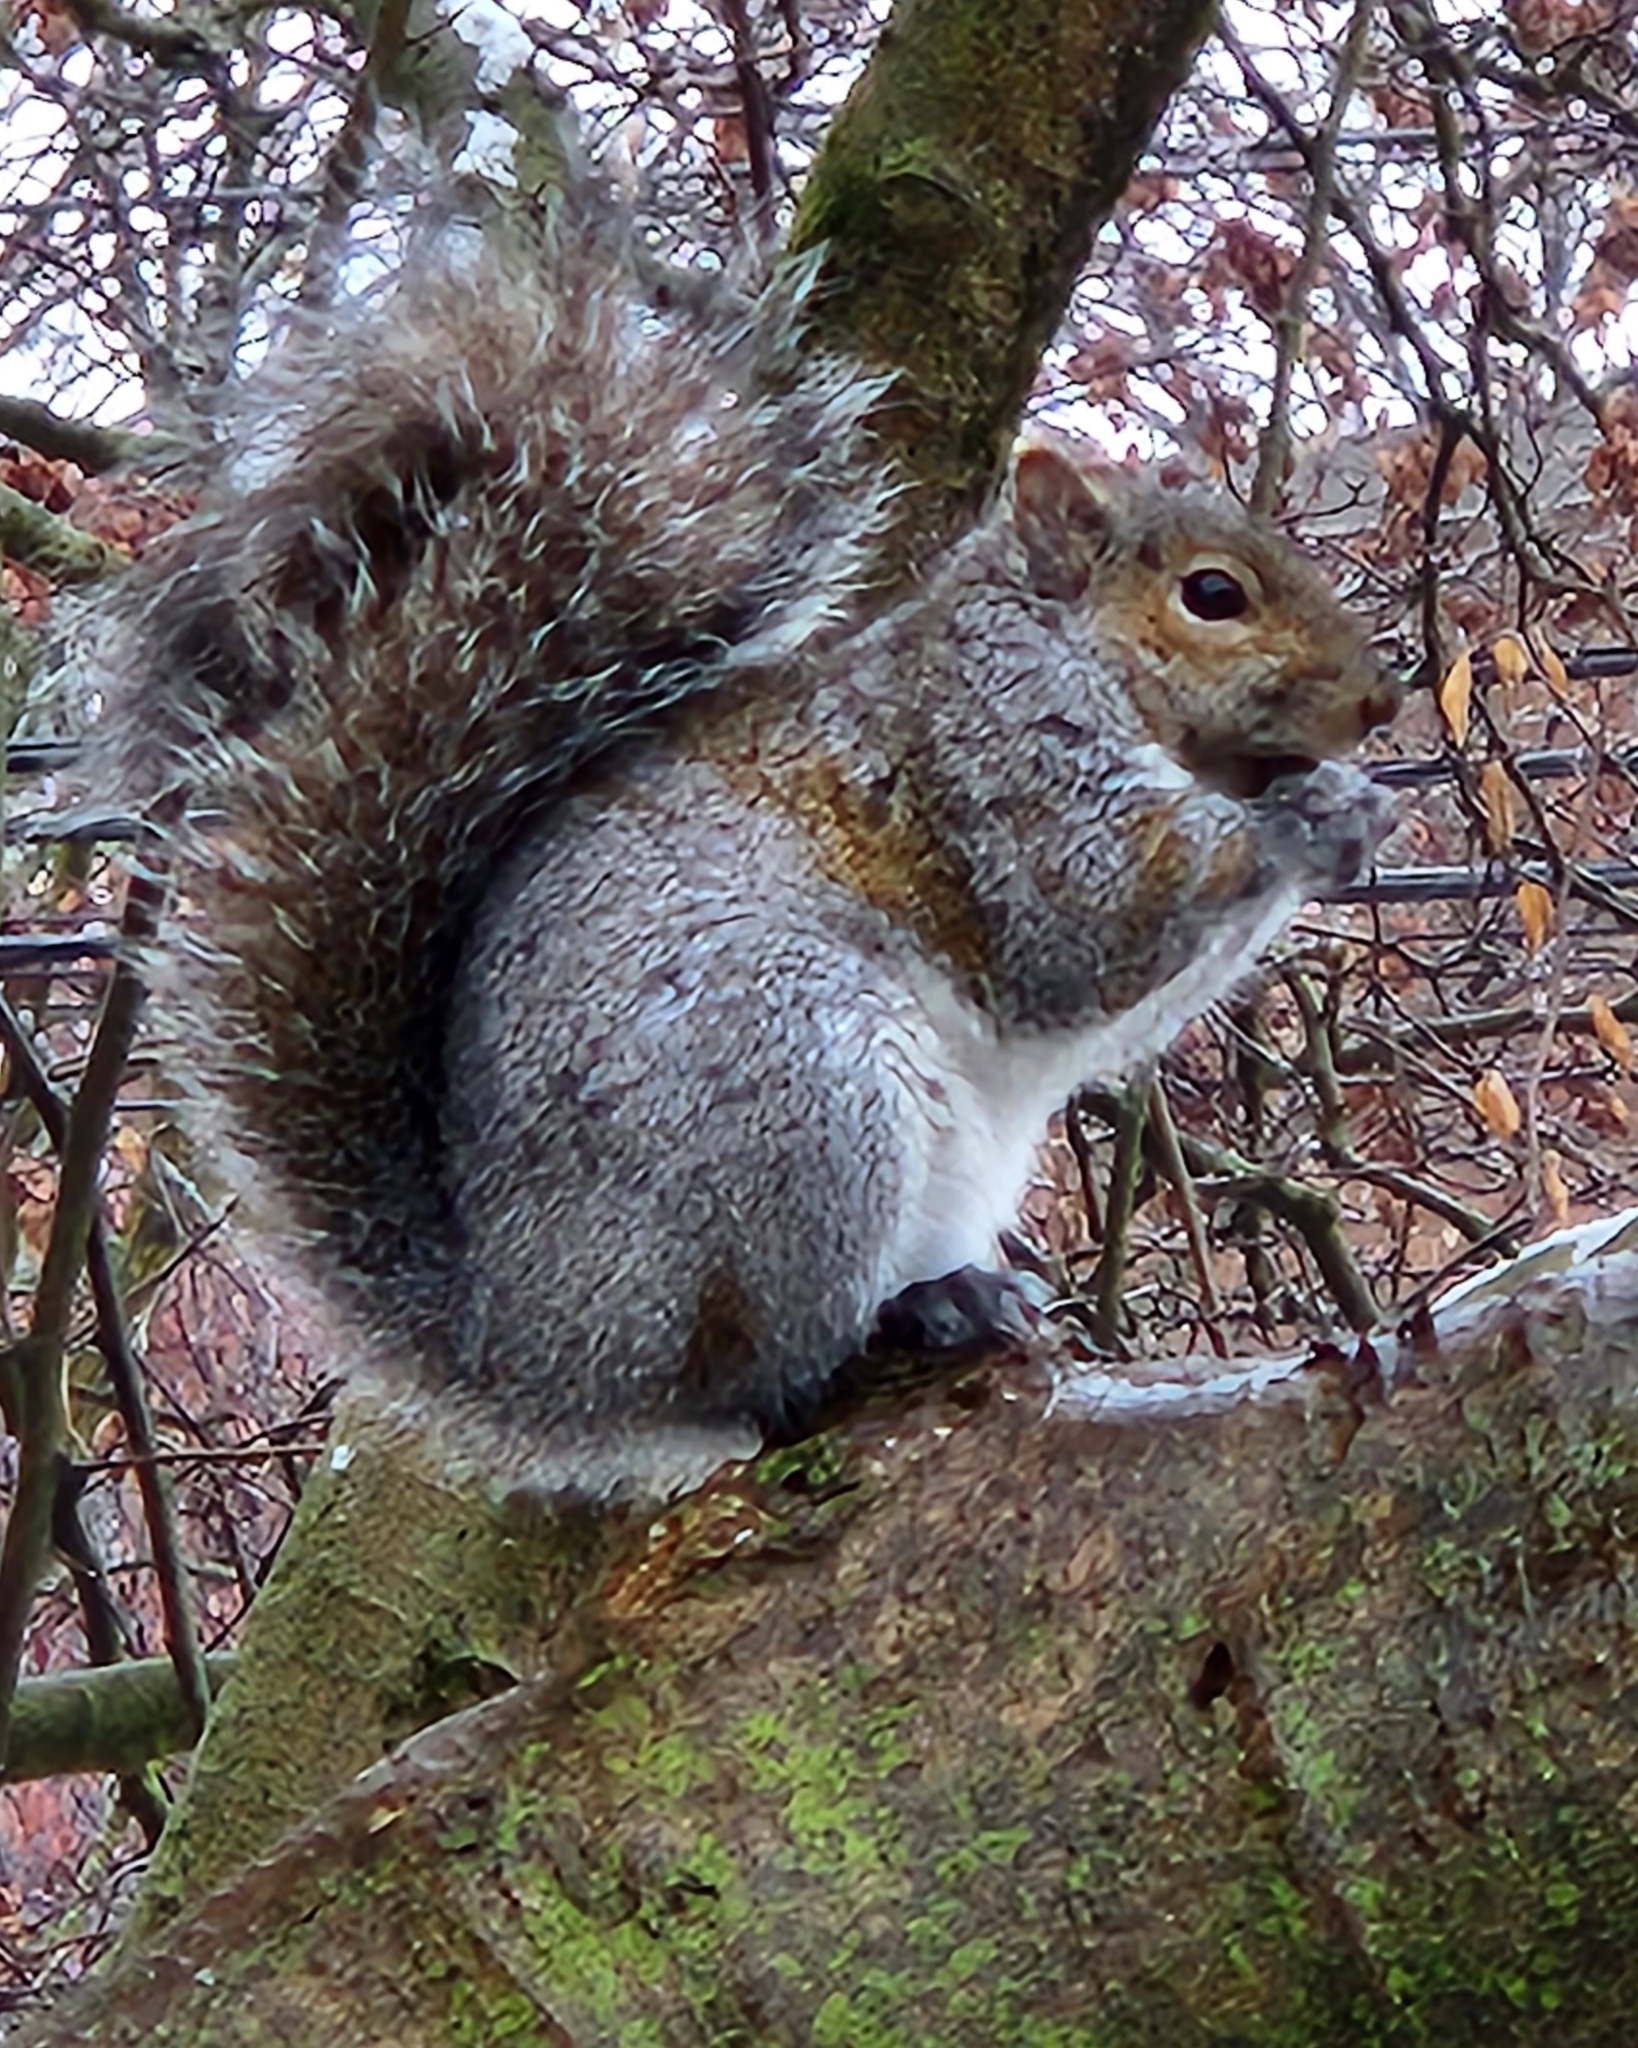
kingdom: Animalia
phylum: Chordata
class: Mammalia
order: Rodentia
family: Sciuridae
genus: Sciurus
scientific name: Sciurus carolinensis
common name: Eastern gray squirrel
